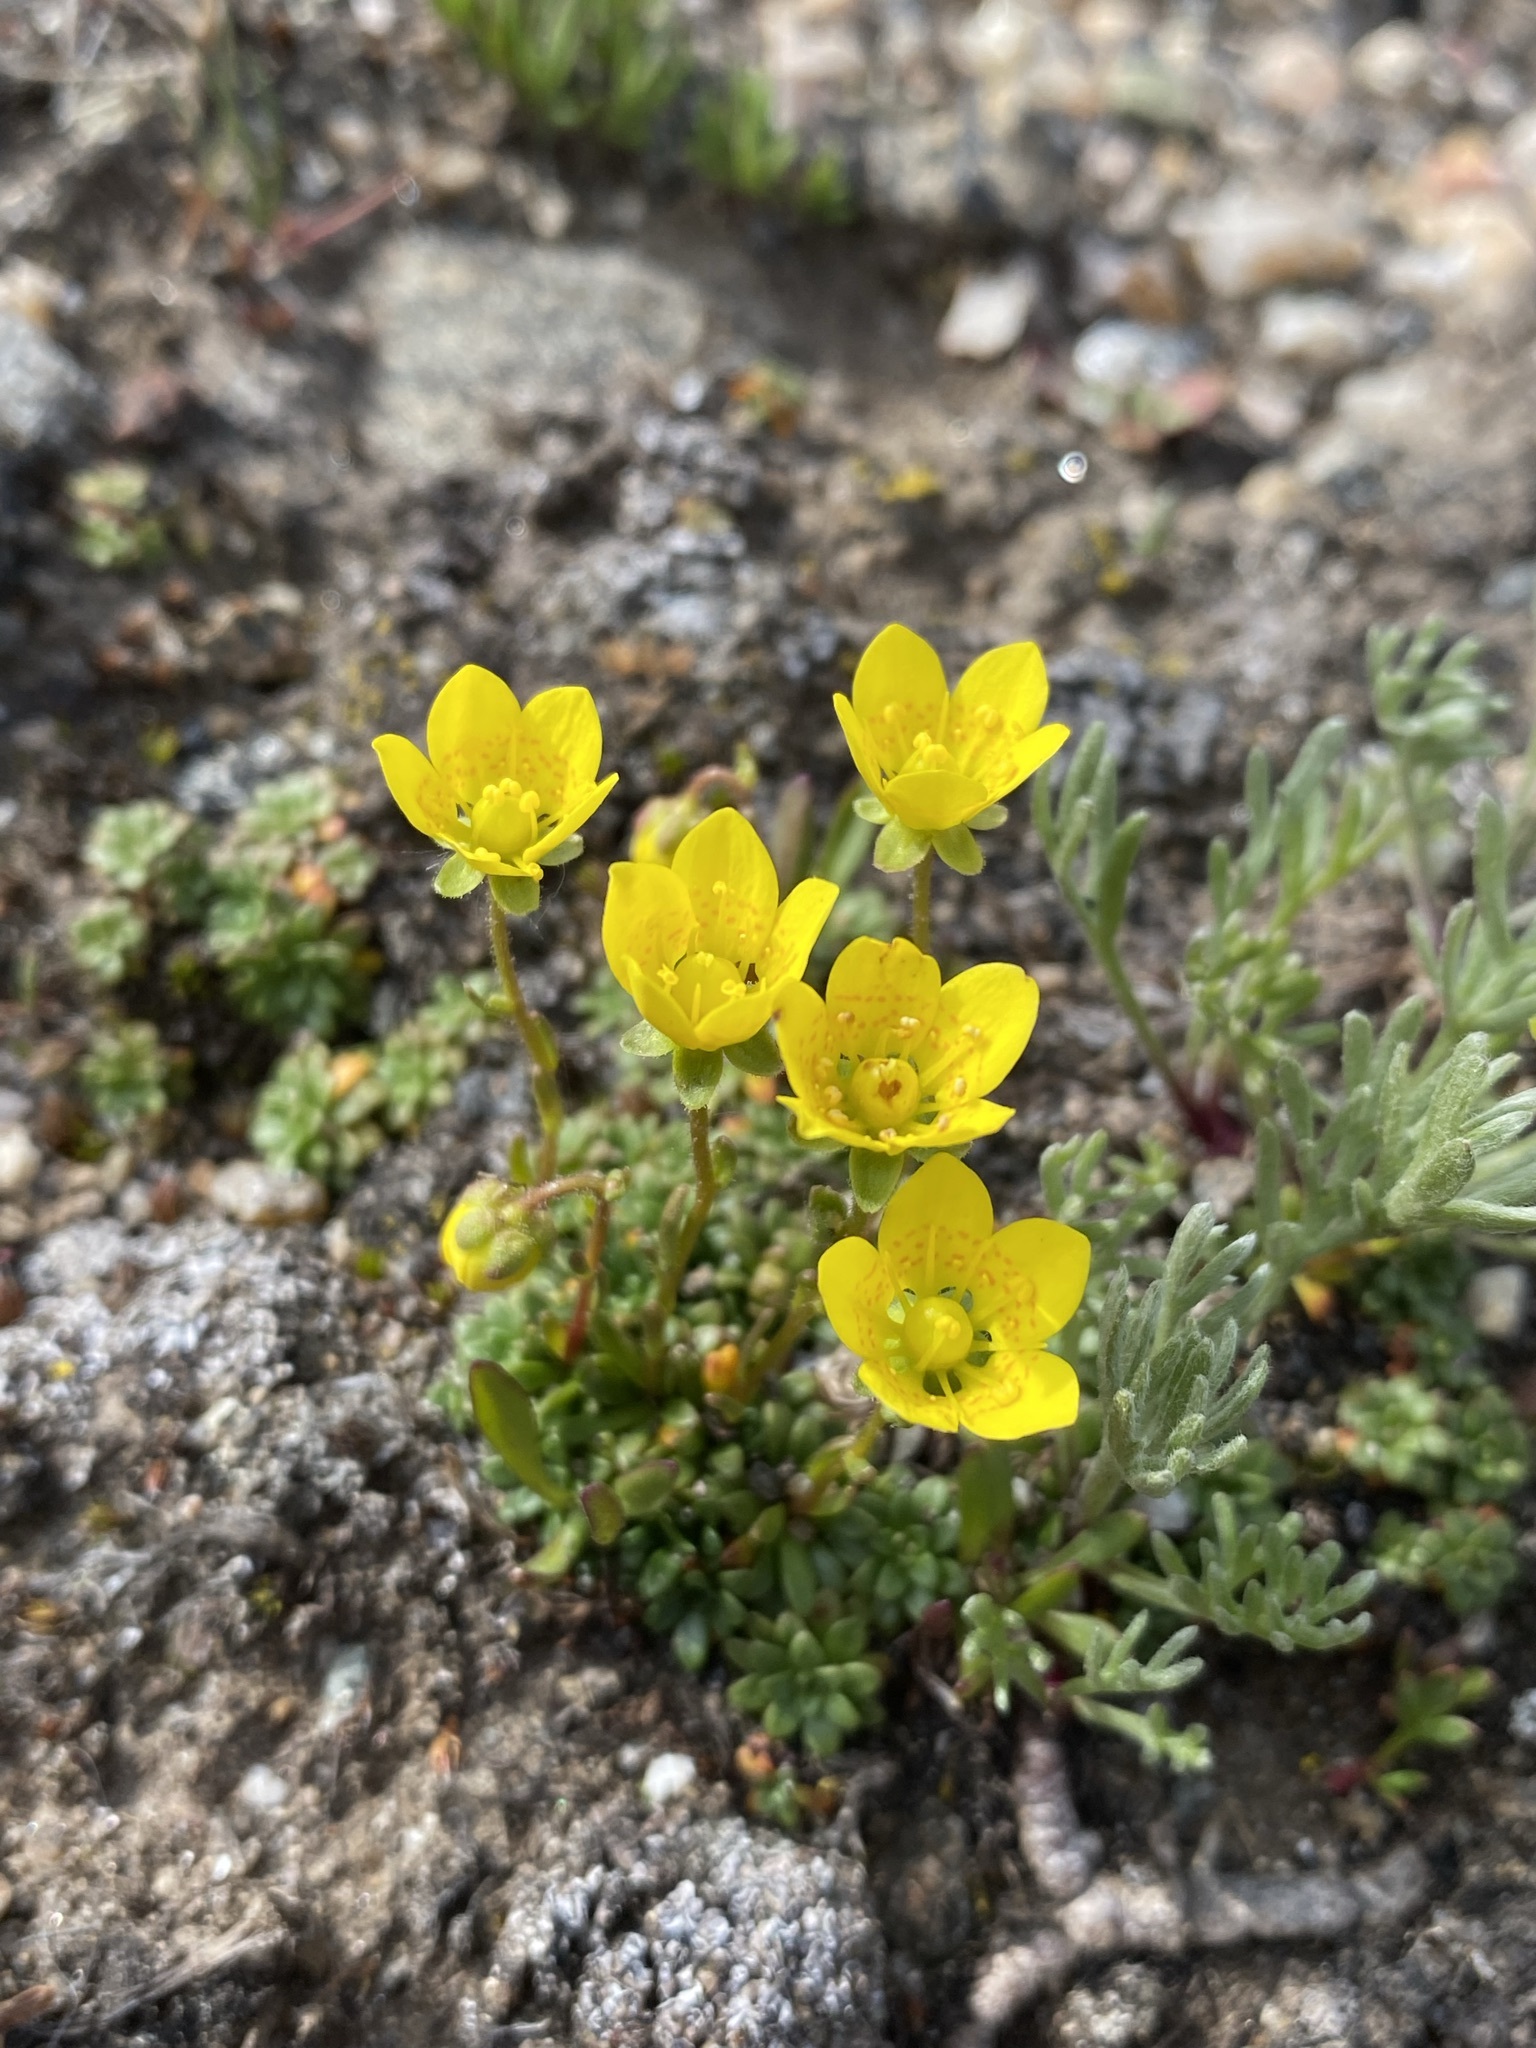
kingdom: Plantae
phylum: Tracheophyta
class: Magnoliopsida
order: Saxifragales
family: Saxifragaceae
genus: Saxifraga
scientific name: Saxifraga chrysantha
